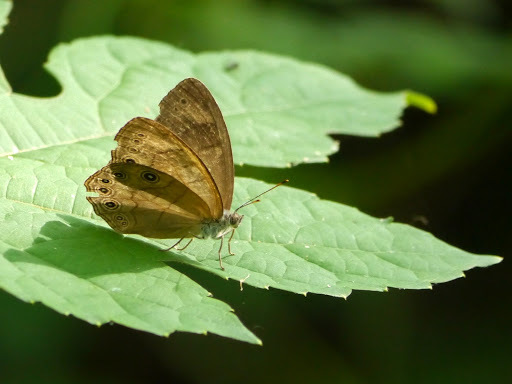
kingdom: Animalia
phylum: Arthropoda
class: Insecta
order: Lepidoptera
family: Nymphalidae
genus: Lethe
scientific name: Lethe eurydice
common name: Eyed brown
